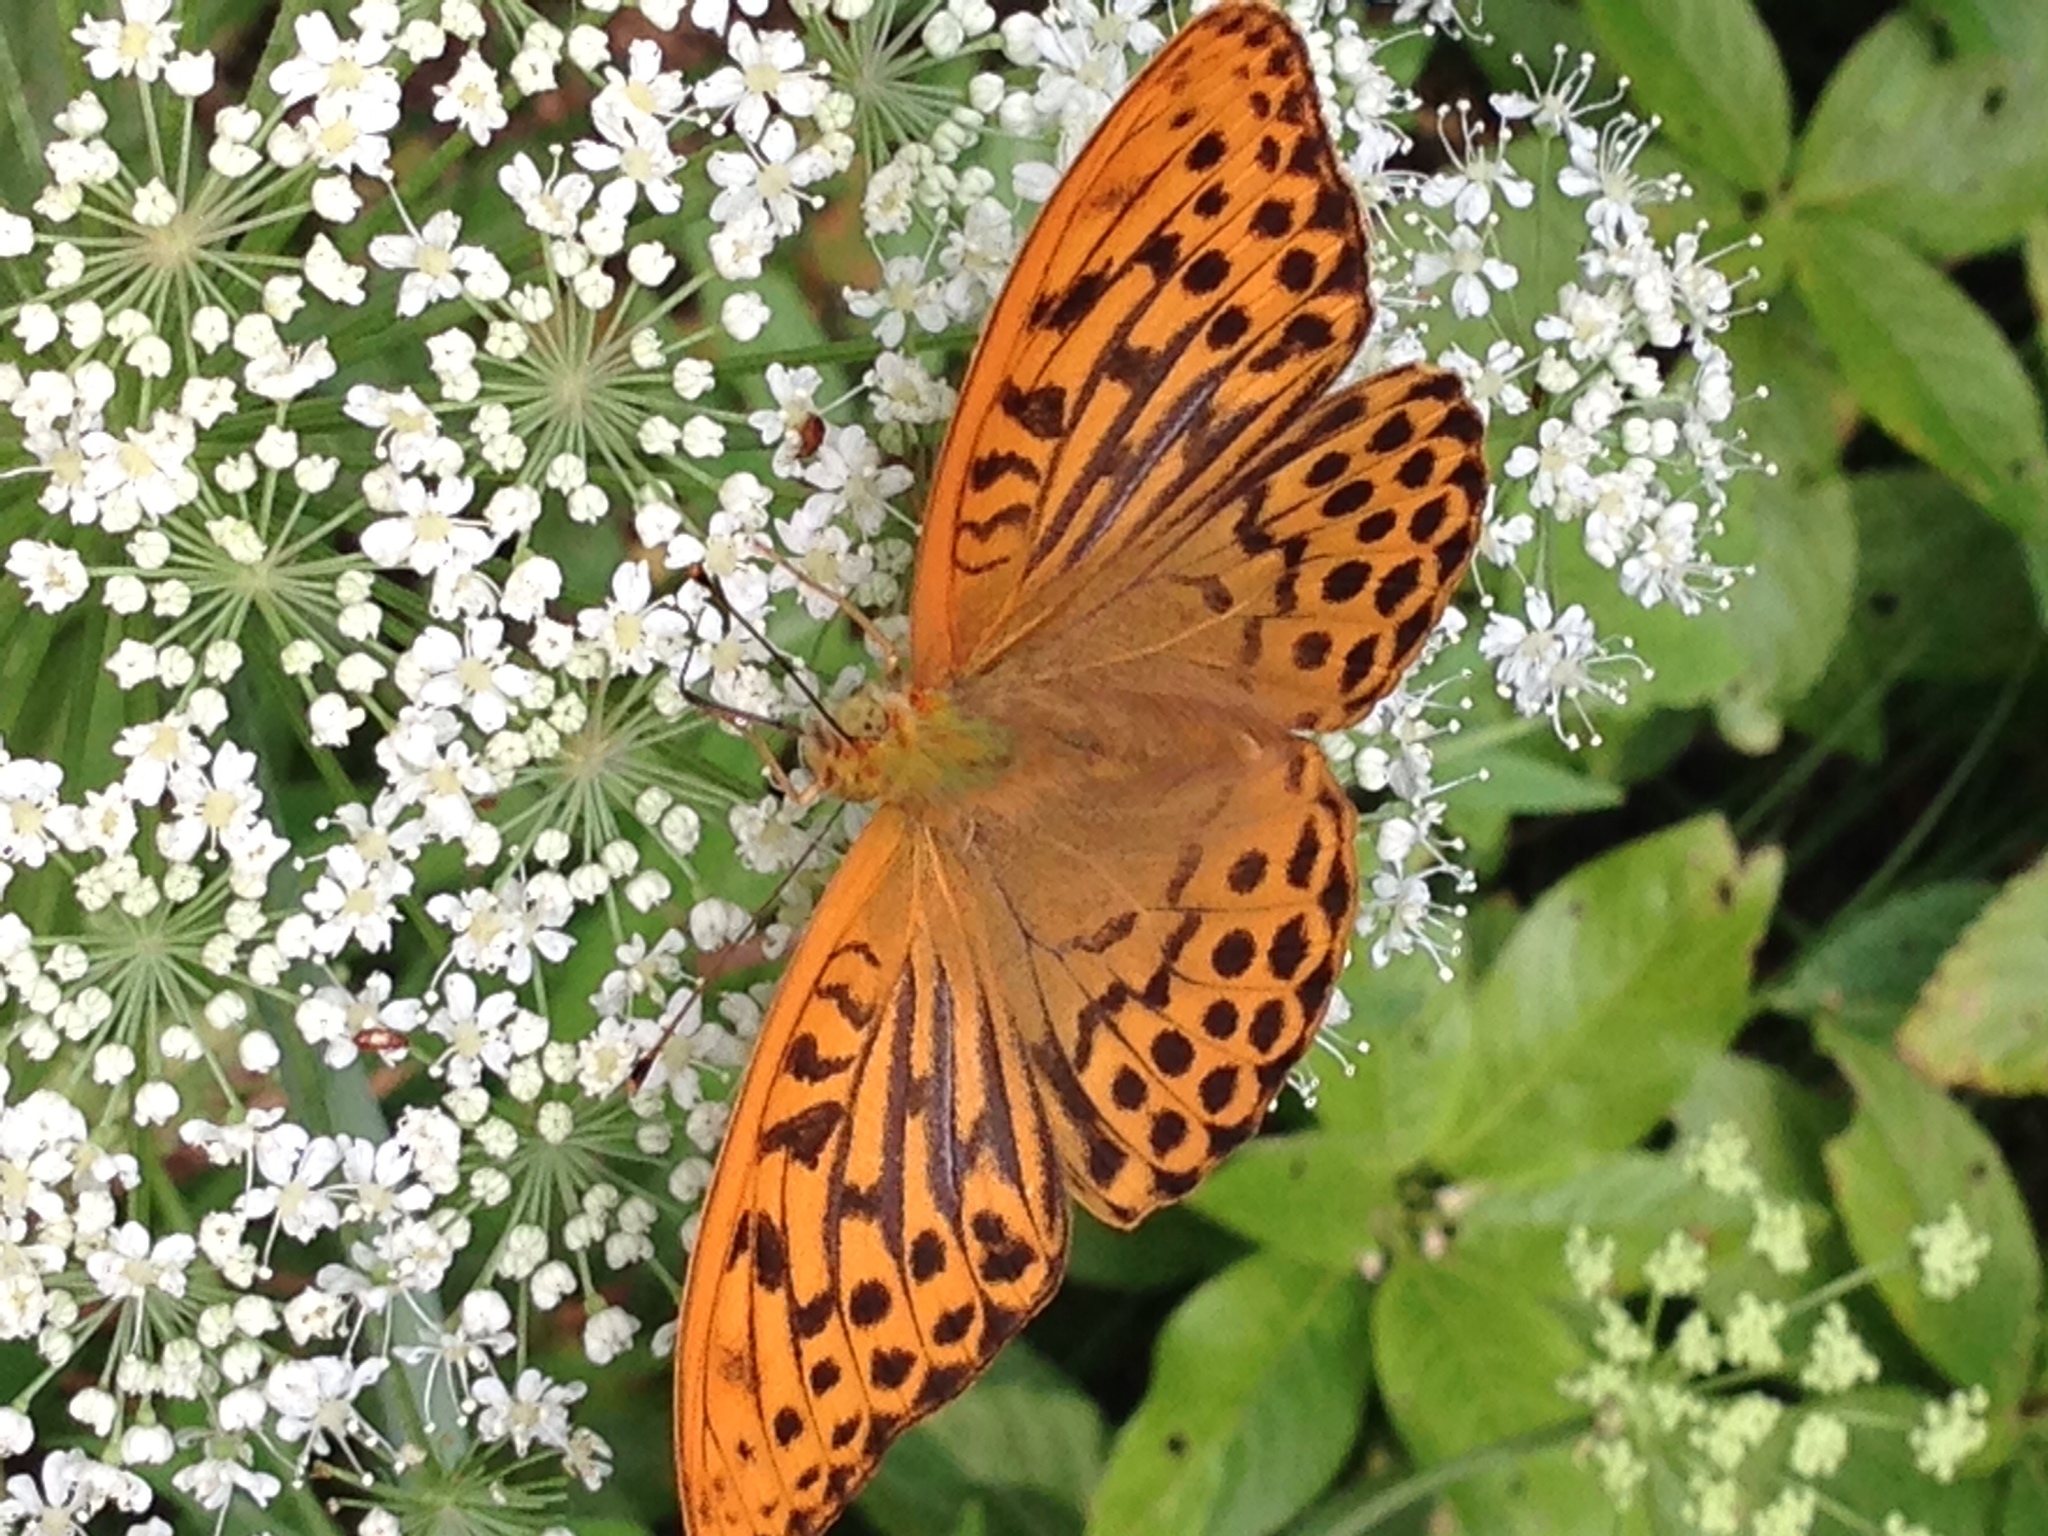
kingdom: Animalia
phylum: Arthropoda
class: Insecta
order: Lepidoptera
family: Nymphalidae
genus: Argynnis
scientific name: Argynnis paphia
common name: Silver-washed fritillary
